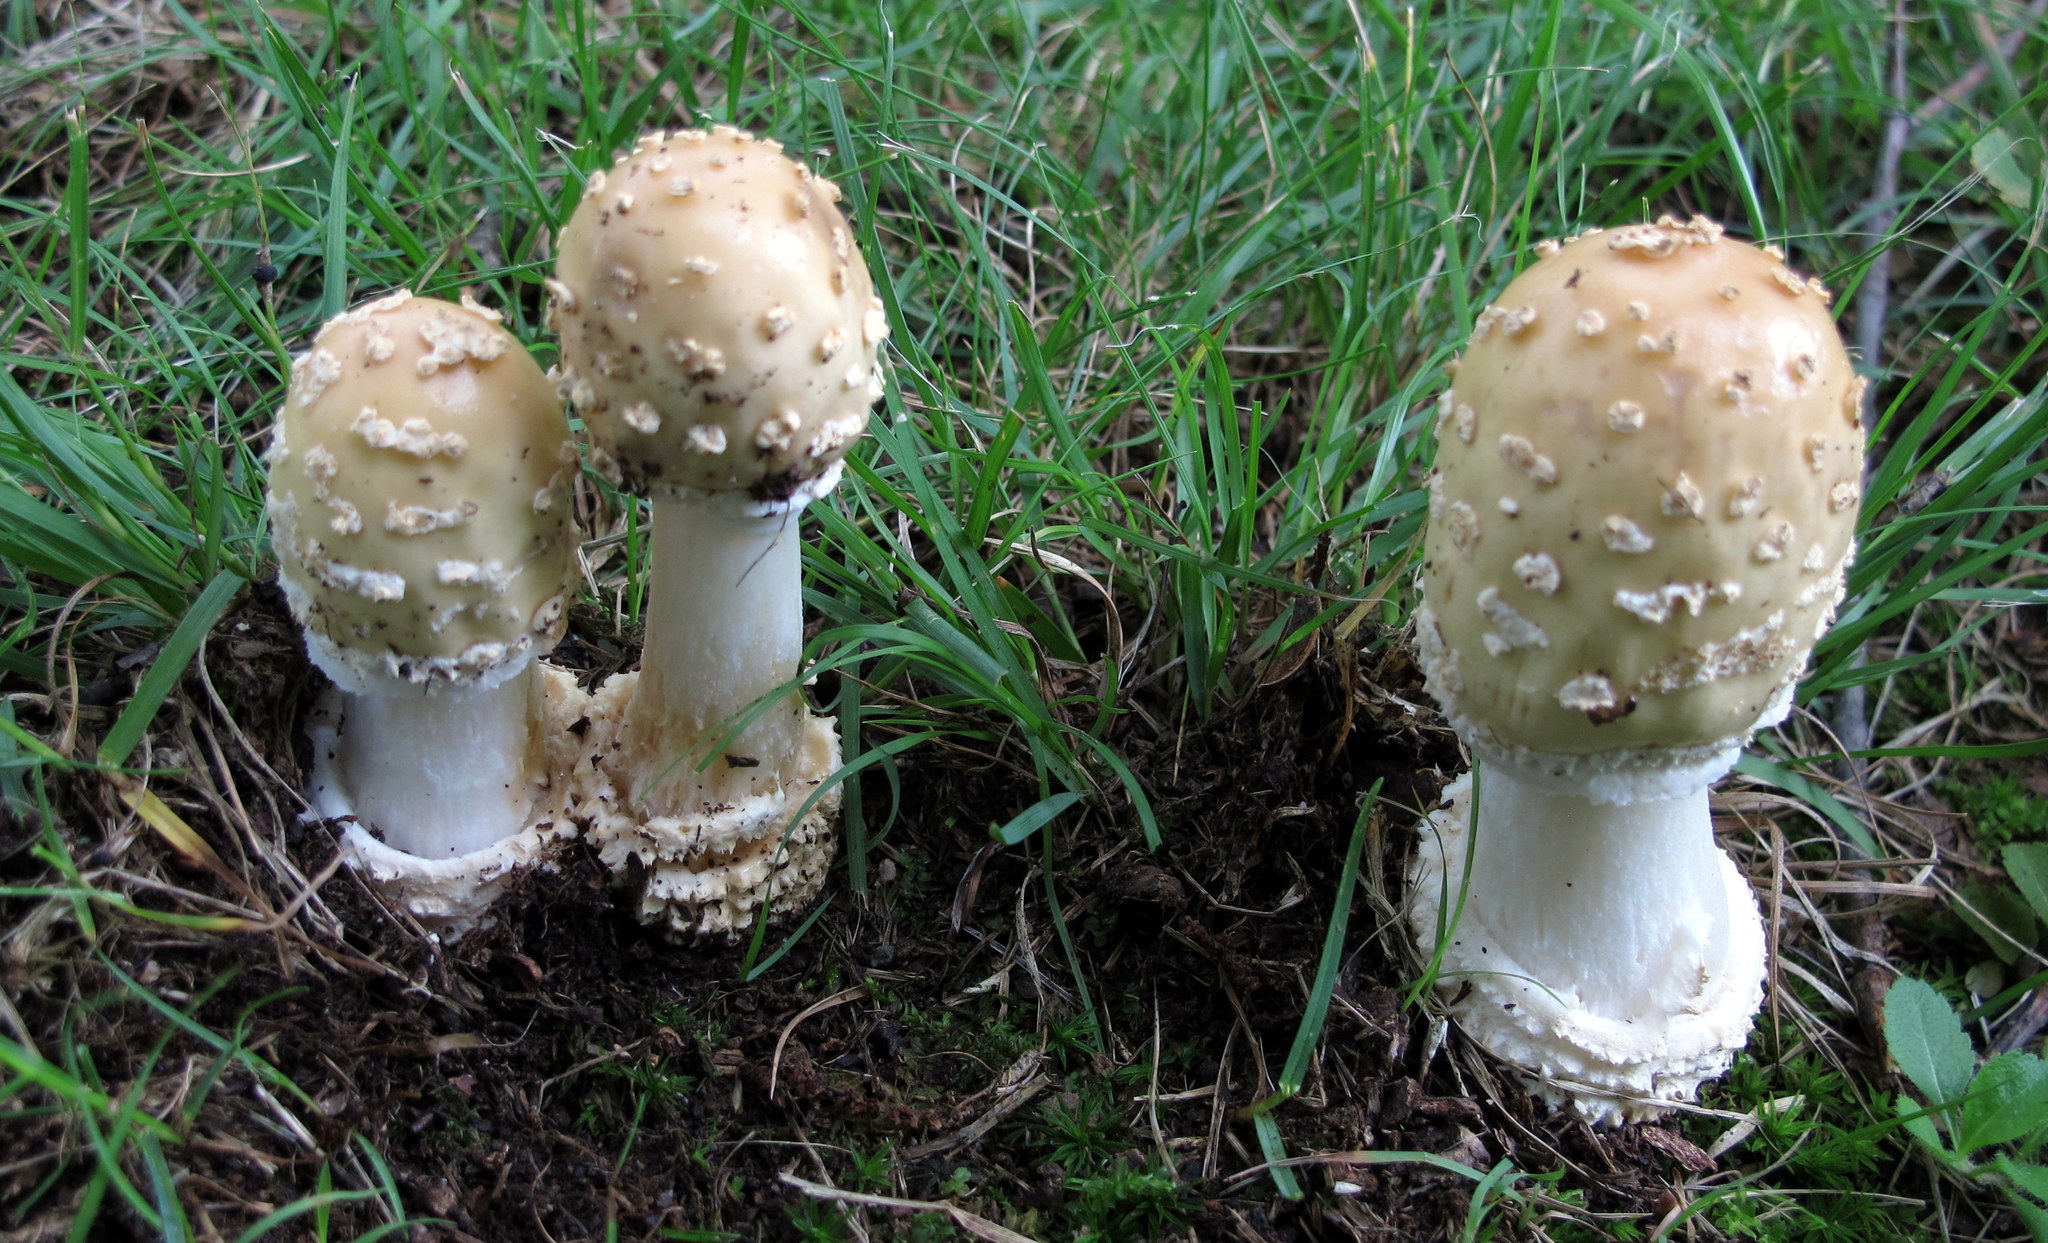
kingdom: Fungi
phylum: Basidiomycota
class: Agaricomycetes
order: Agaricales
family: Amanitaceae
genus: Amanita
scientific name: Amanita velatipes
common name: Great funnel-veil amanita
